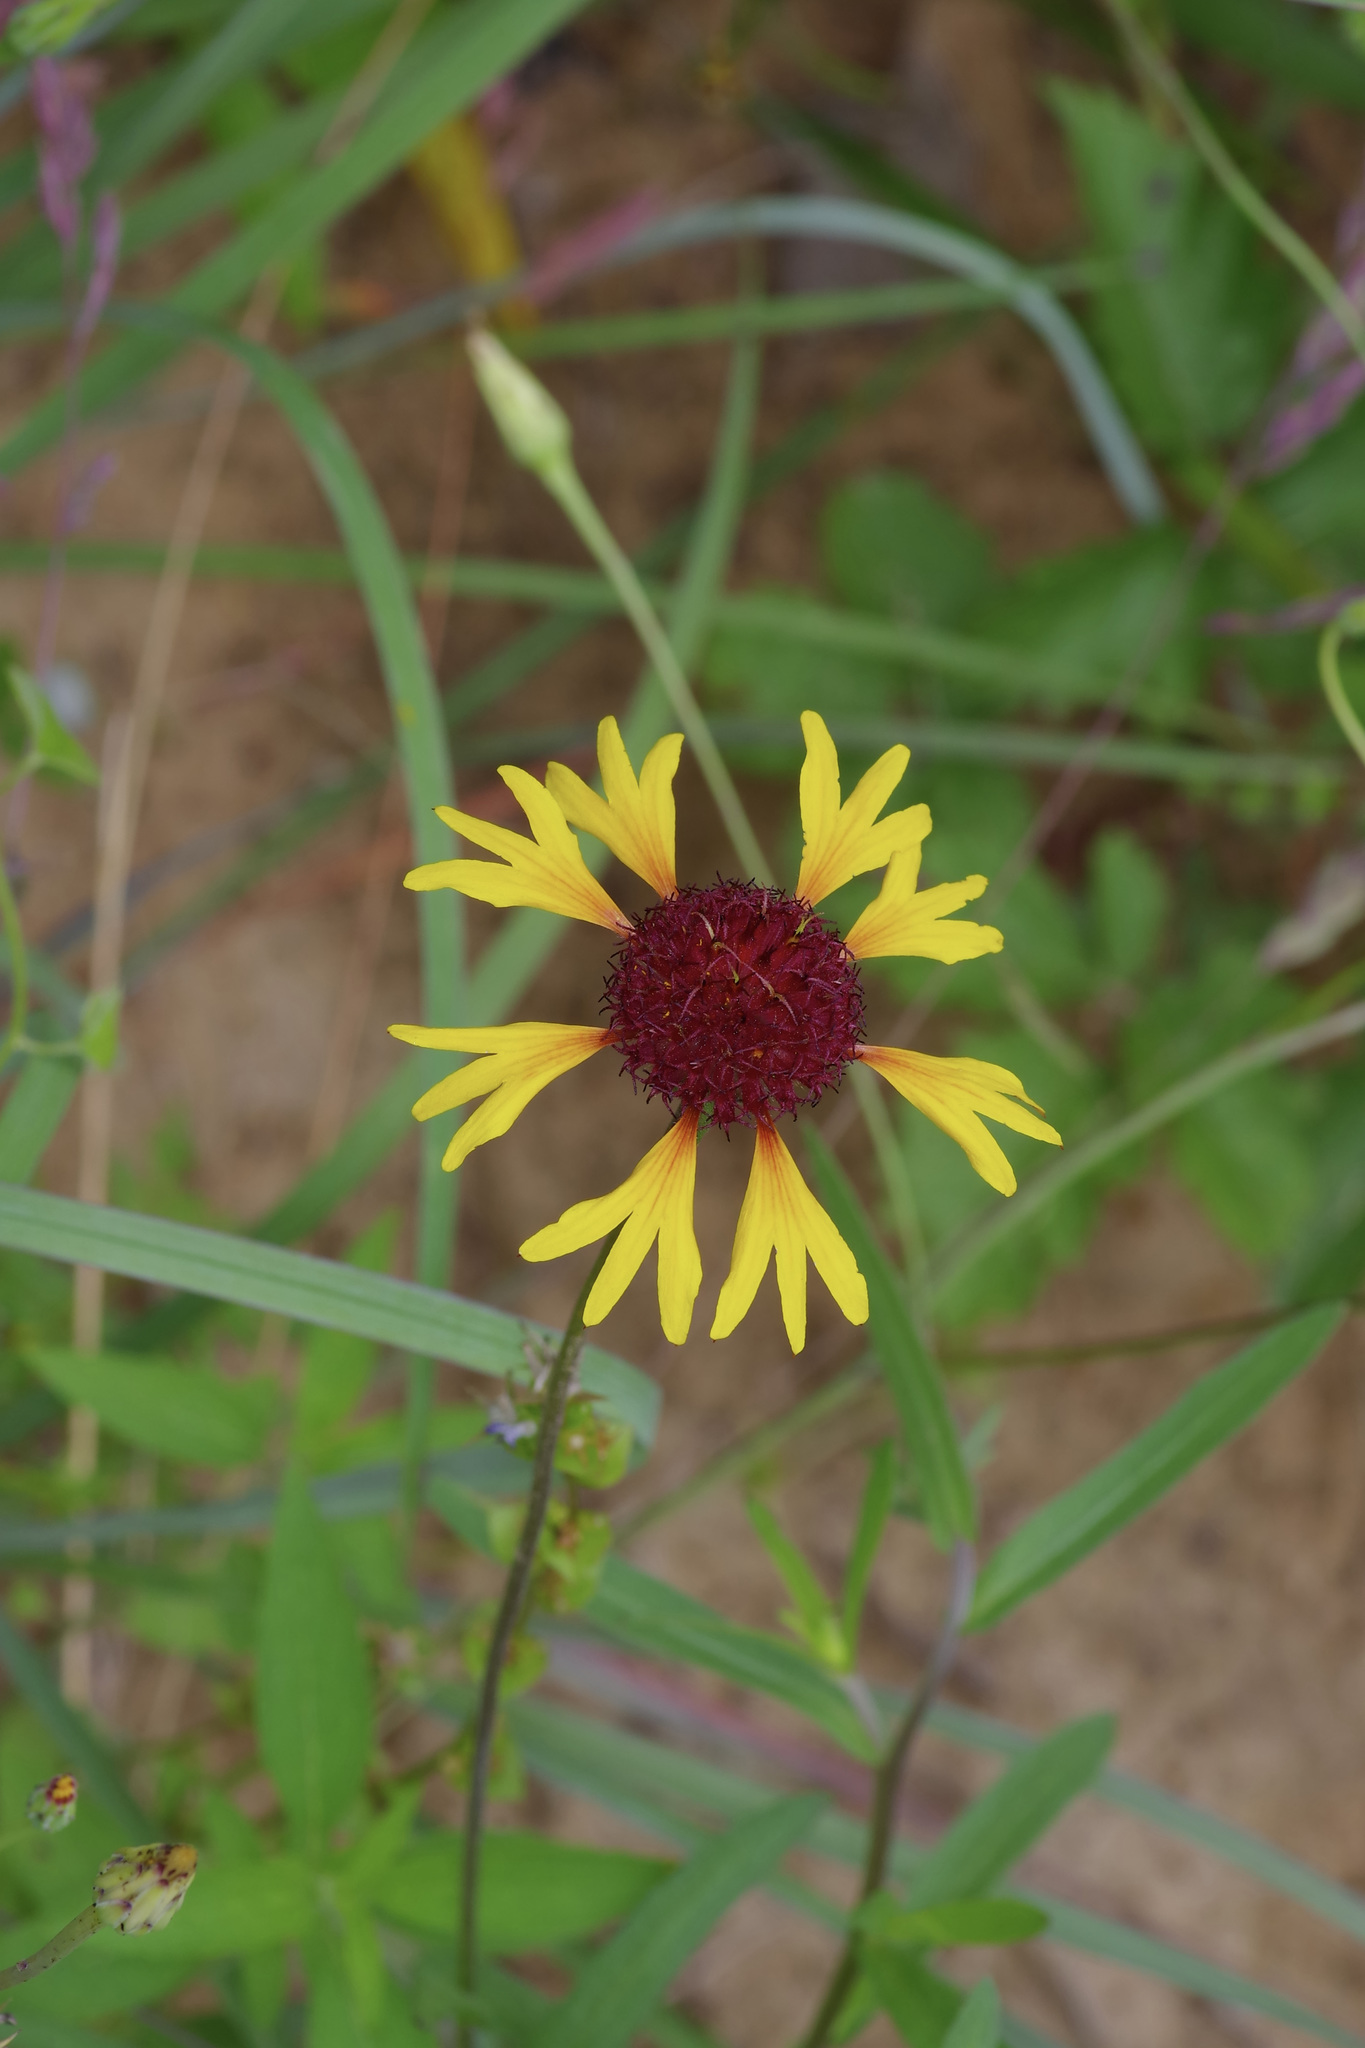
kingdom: Plantae
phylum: Tracheophyta
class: Magnoliopsida
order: Asterales
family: Asteraceae
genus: Gaillardia
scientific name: Gaillardia aestivalis
